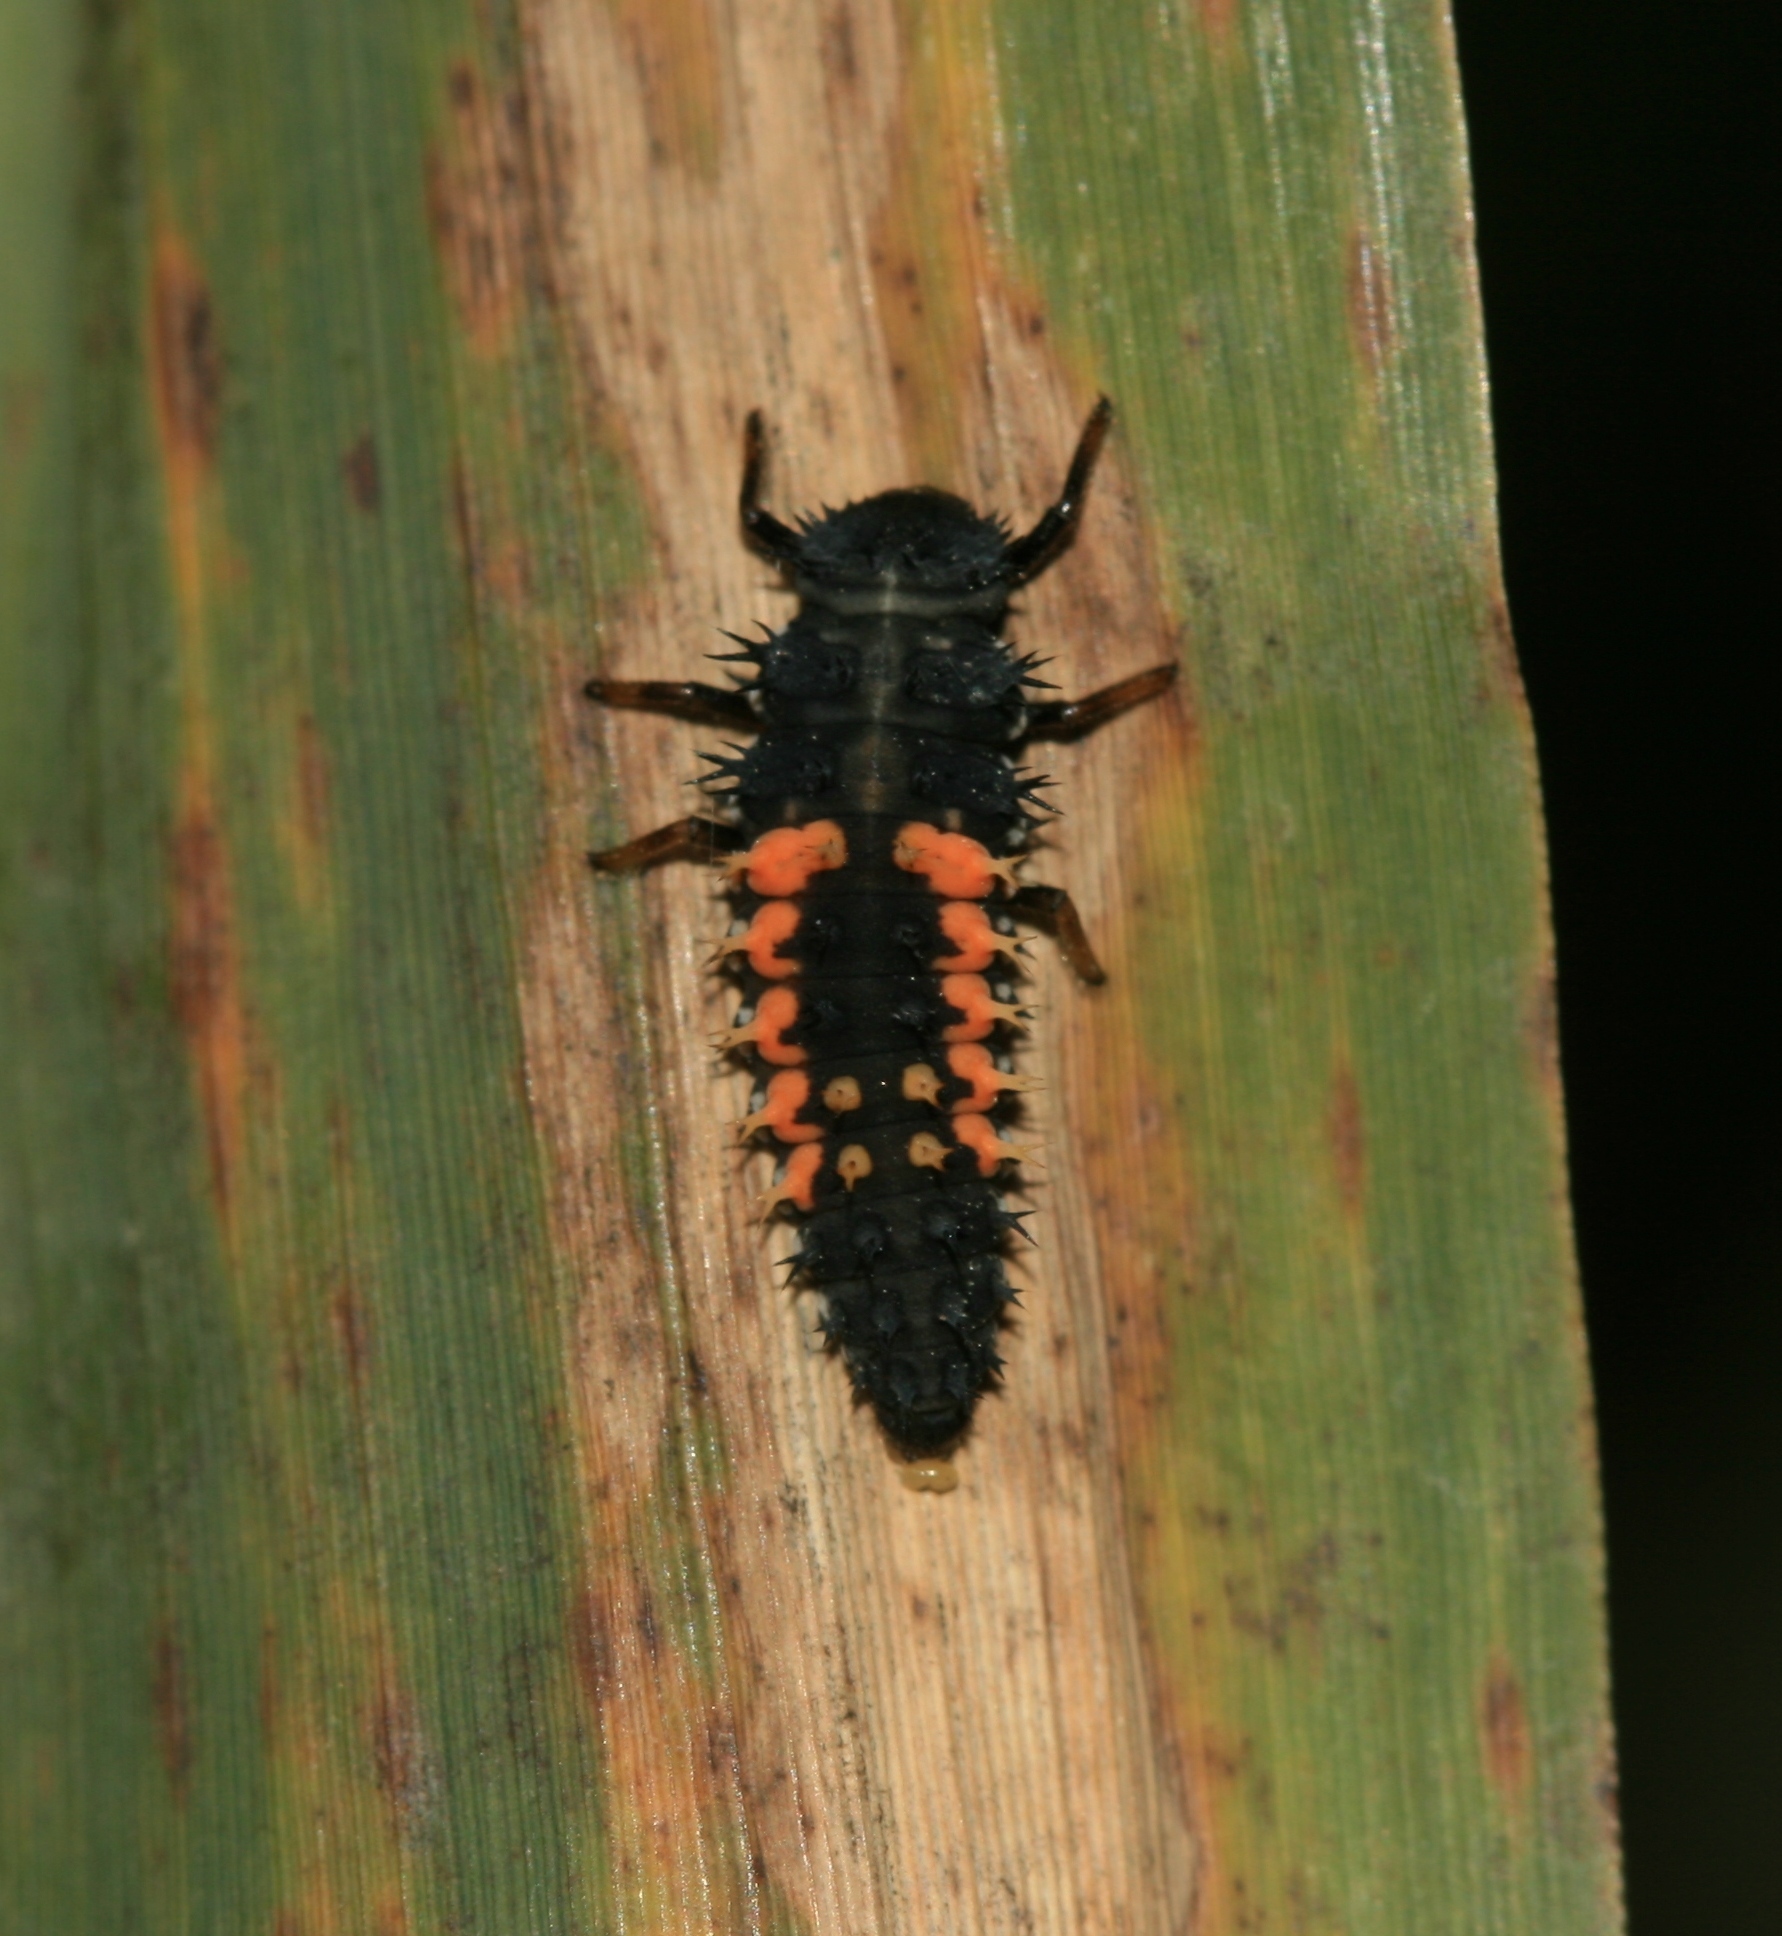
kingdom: Animalia
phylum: Arthropoda
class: Insecta
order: Coleoptera
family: Coccinellidae
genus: Harmonia
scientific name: Harmonia axyridis
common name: Harlequin ladybird
